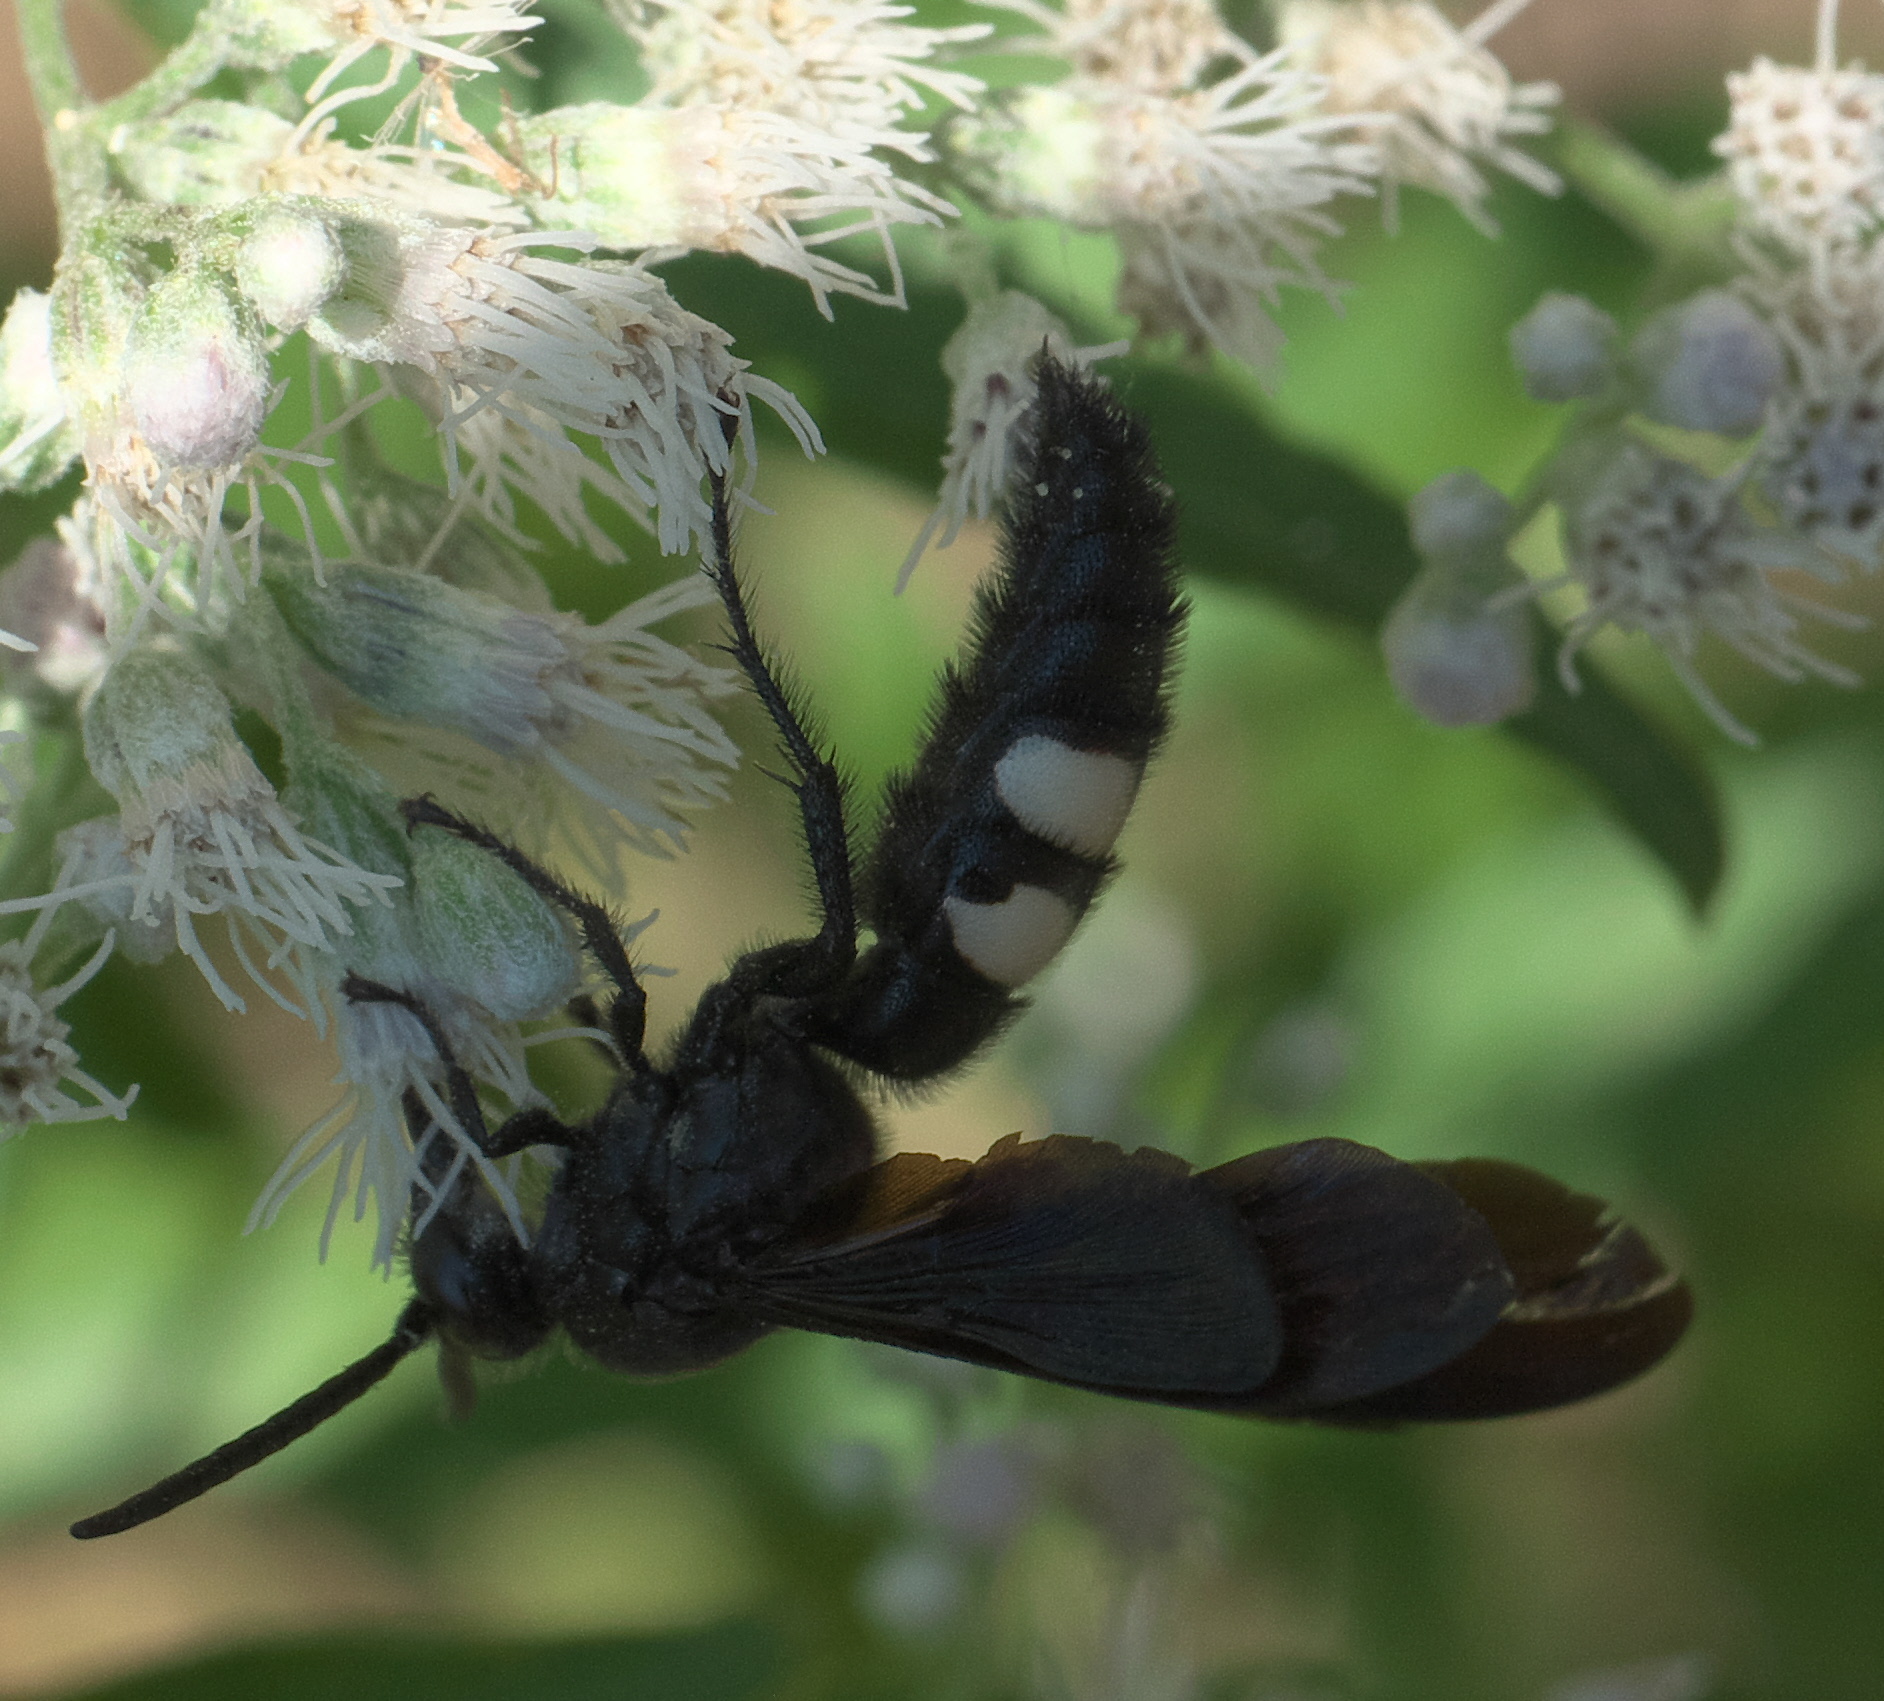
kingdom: Animalia
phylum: Arthropoda
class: Insecta
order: Hymenoptera
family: Scoliidae
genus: Scolia
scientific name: Scolia bicincta
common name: Double-banded scoliid wasp
